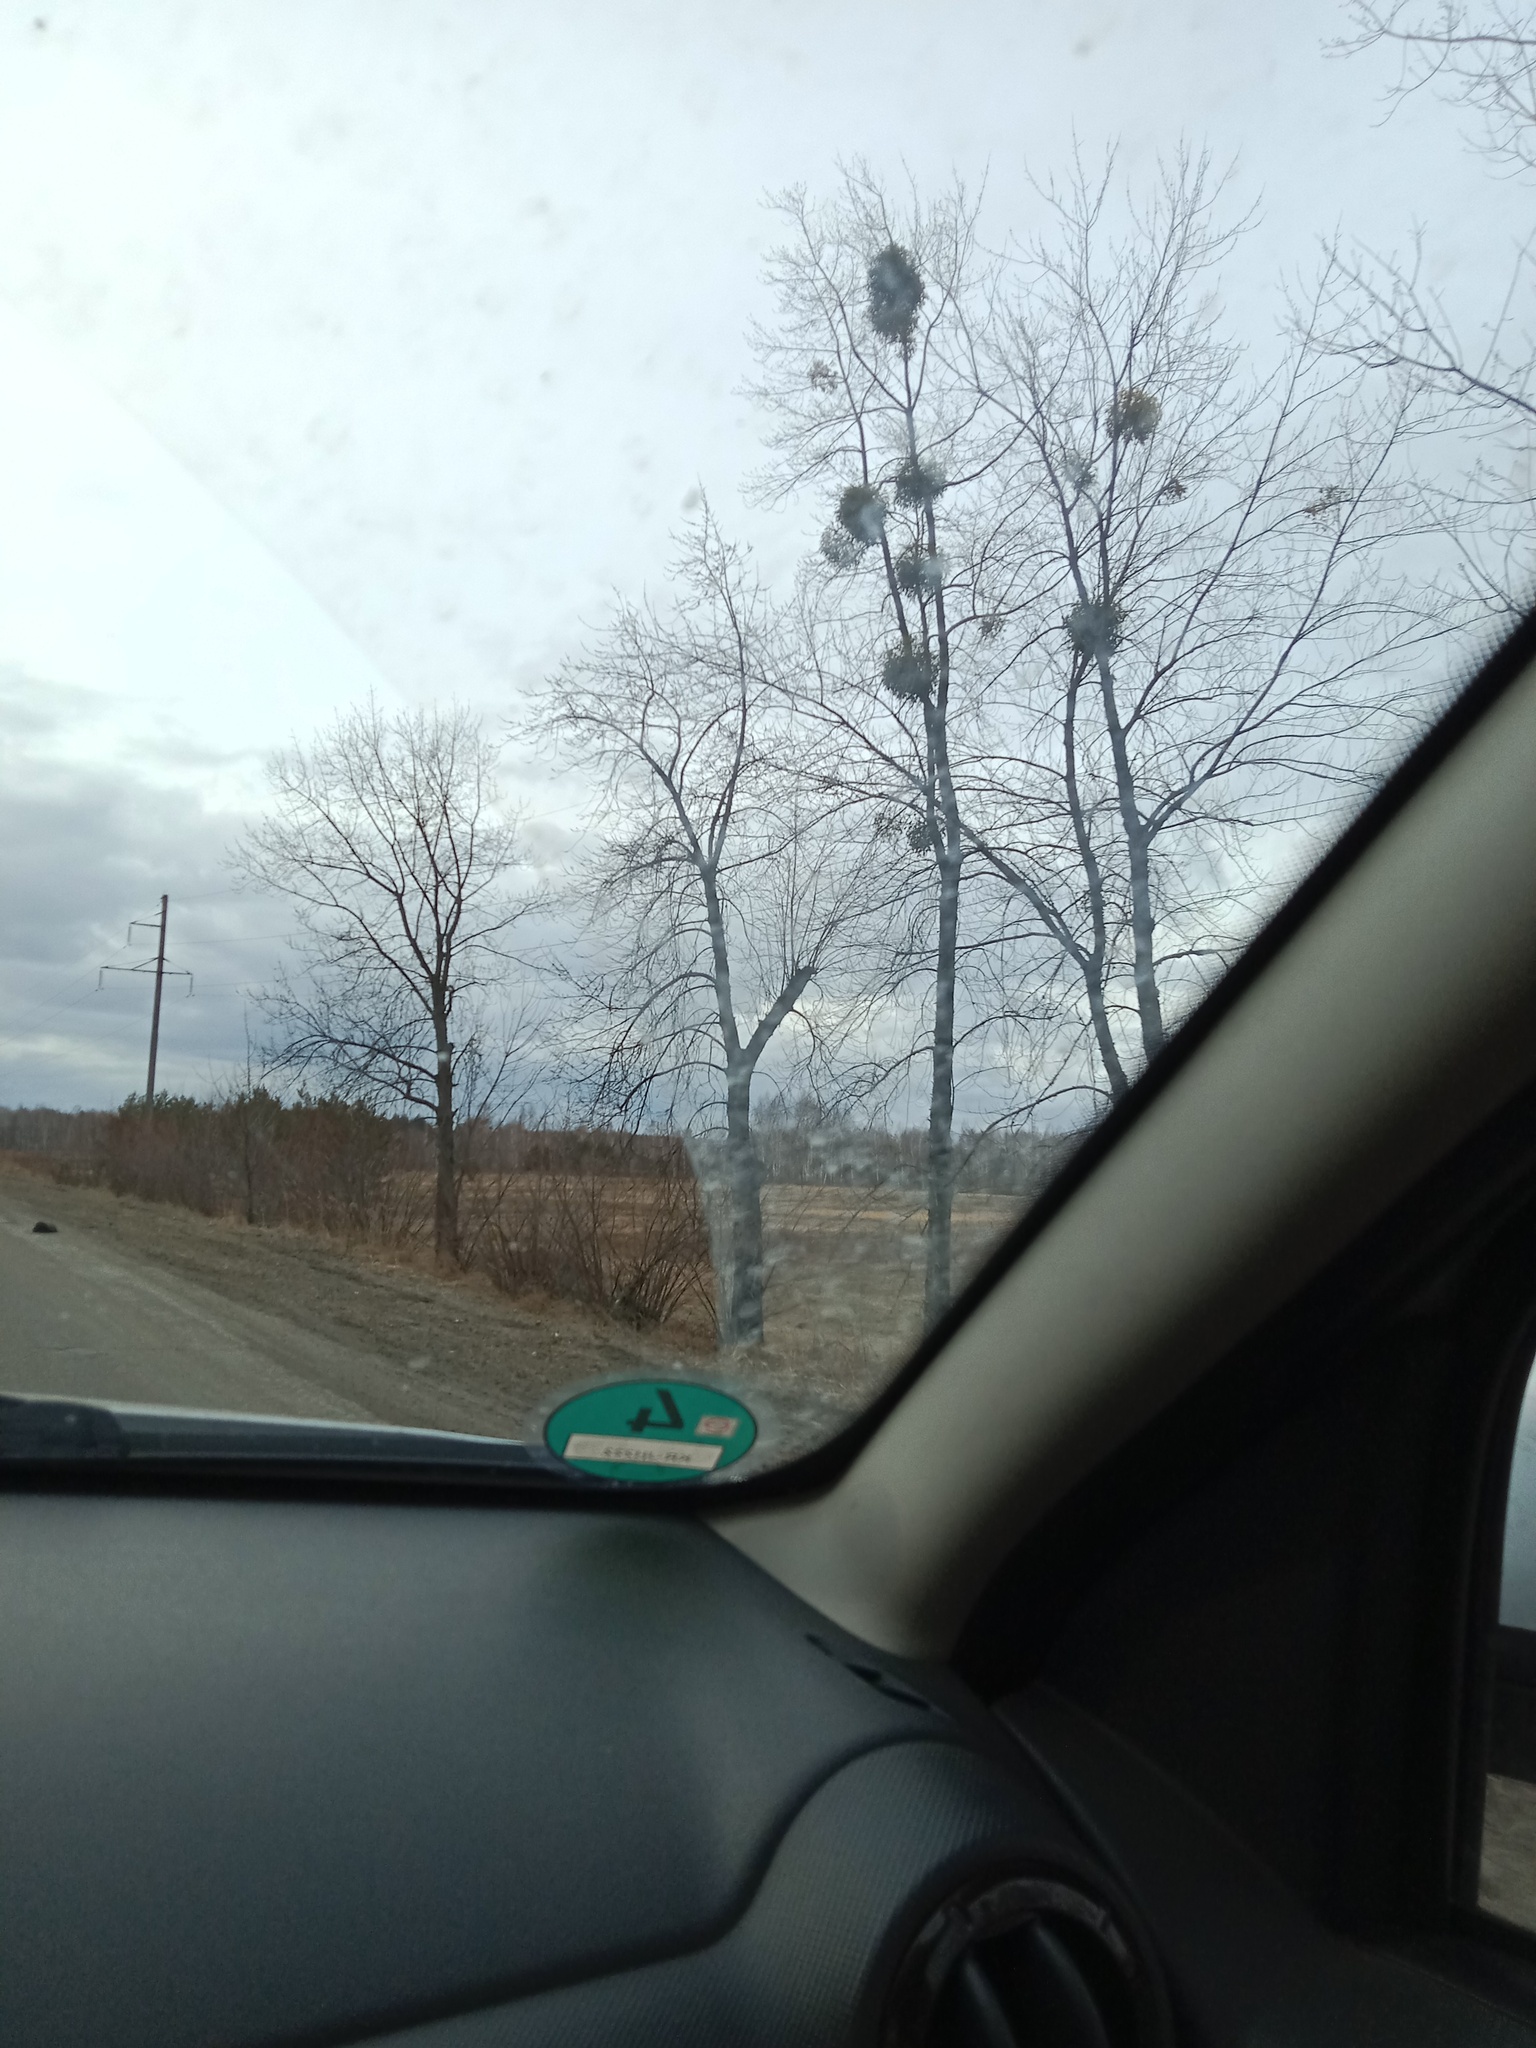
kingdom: Plantae
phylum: Tracheophyta
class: Magnoliopsida
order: Santalales
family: Viscaceae
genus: Viscum
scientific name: Viscum album
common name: Mistletoe
